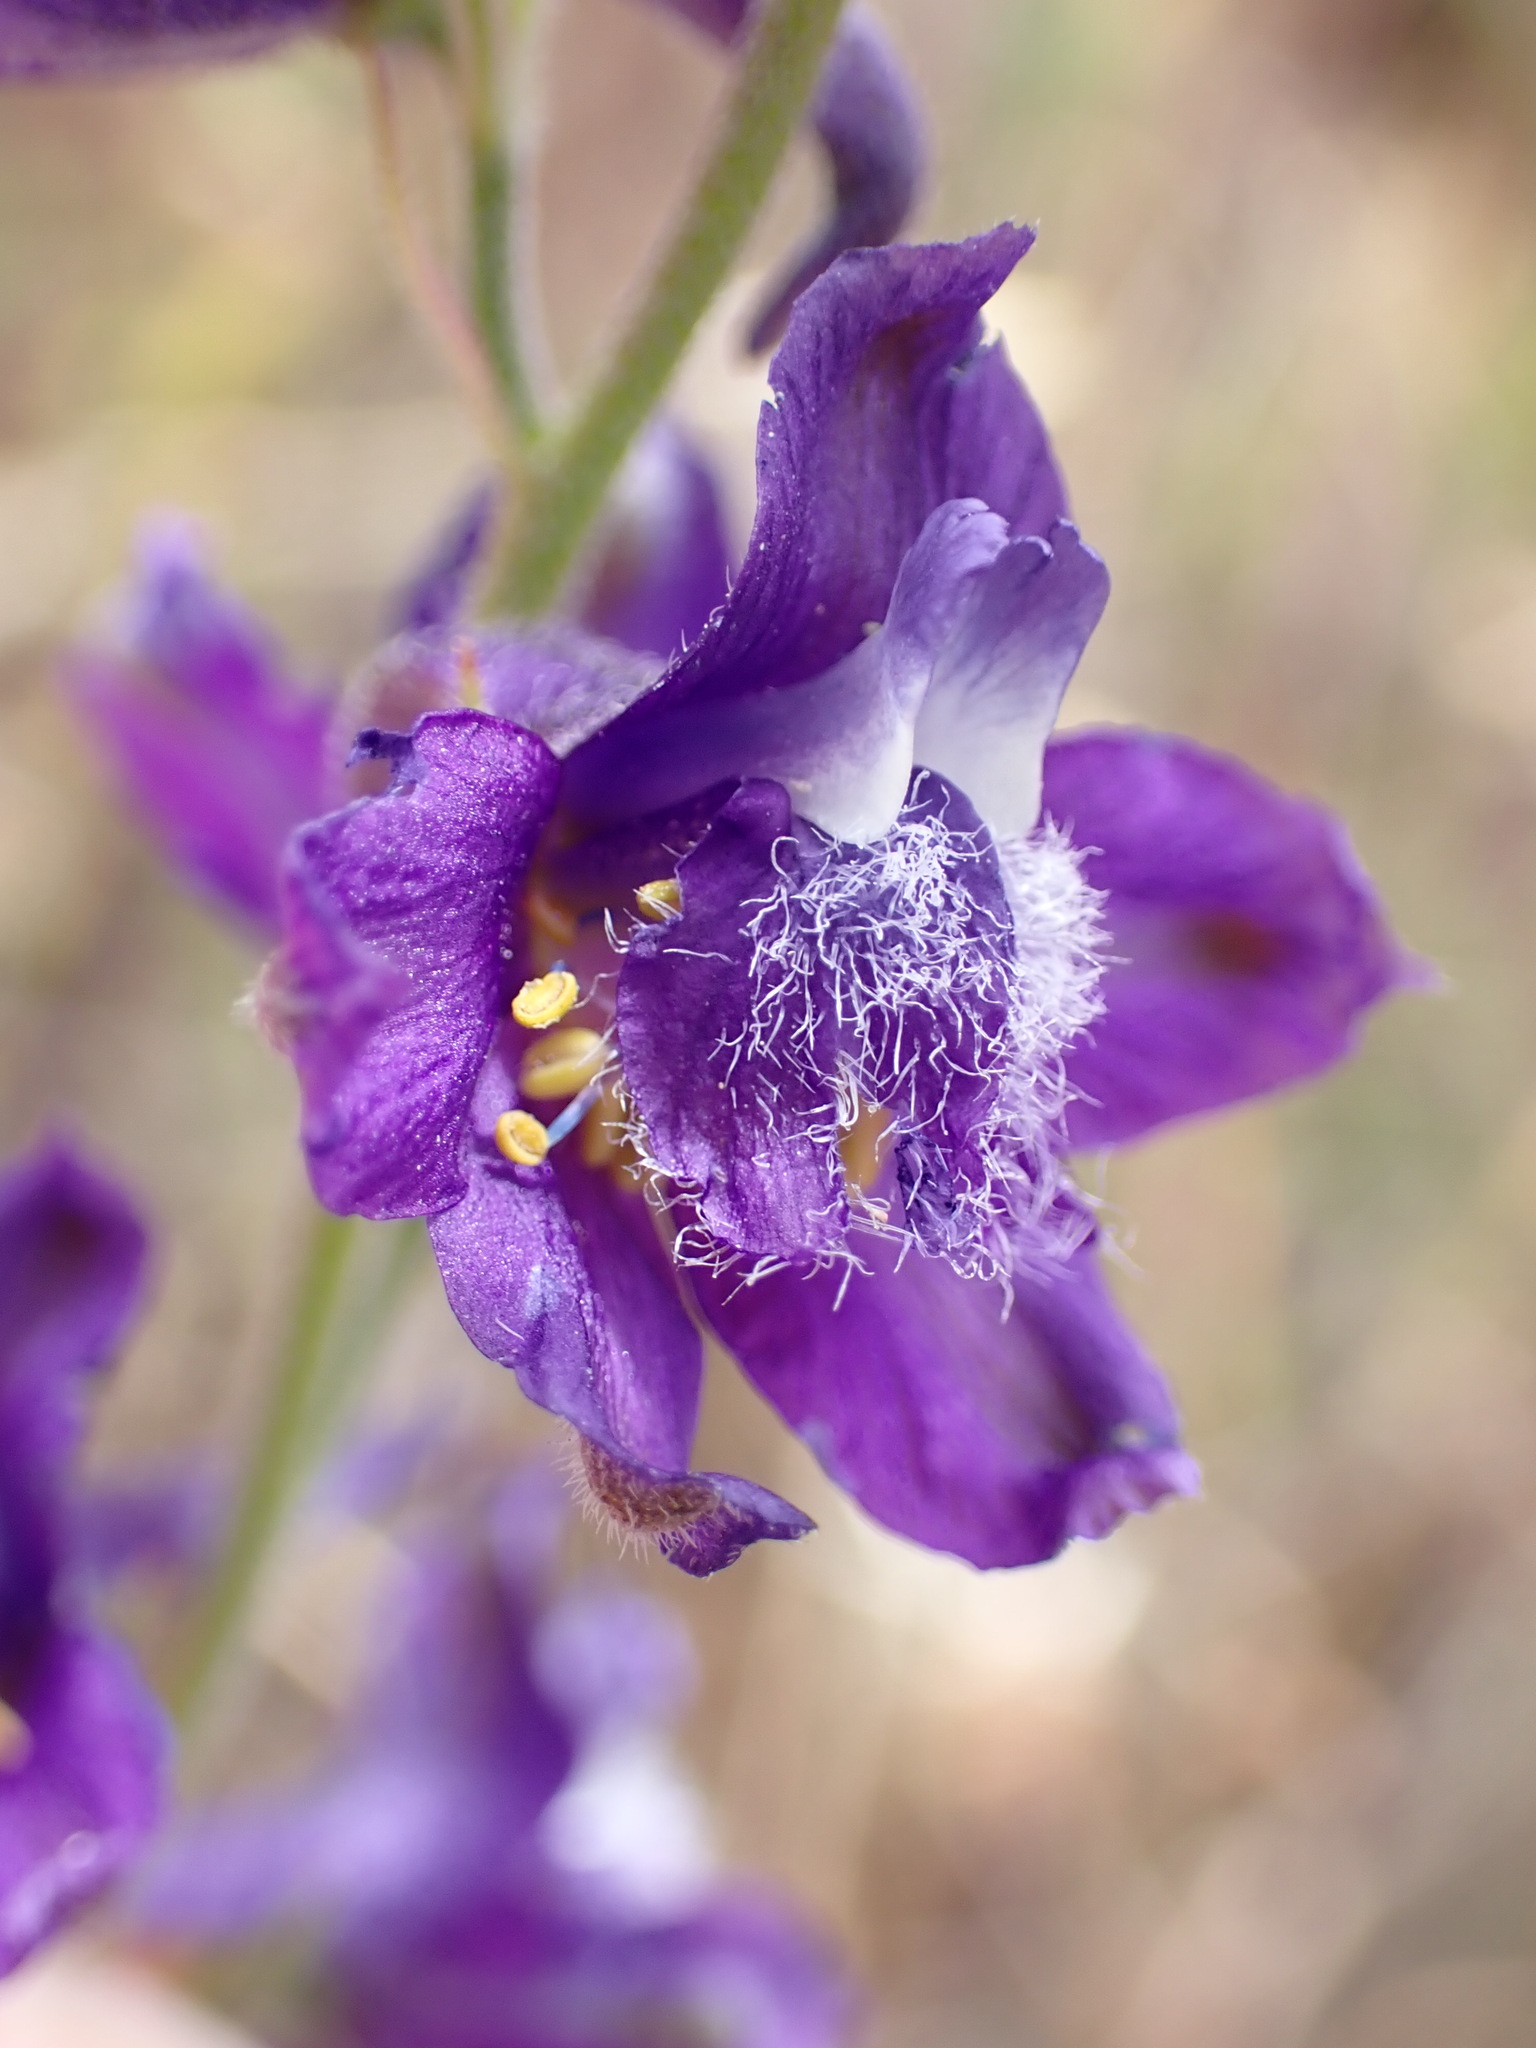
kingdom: Plantae
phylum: Tracheophyta
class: Magnoliopsida
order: Ranunculales
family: Ranunculaceae
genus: Delphinium
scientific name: Delphinium hesperium
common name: Western larkspur
